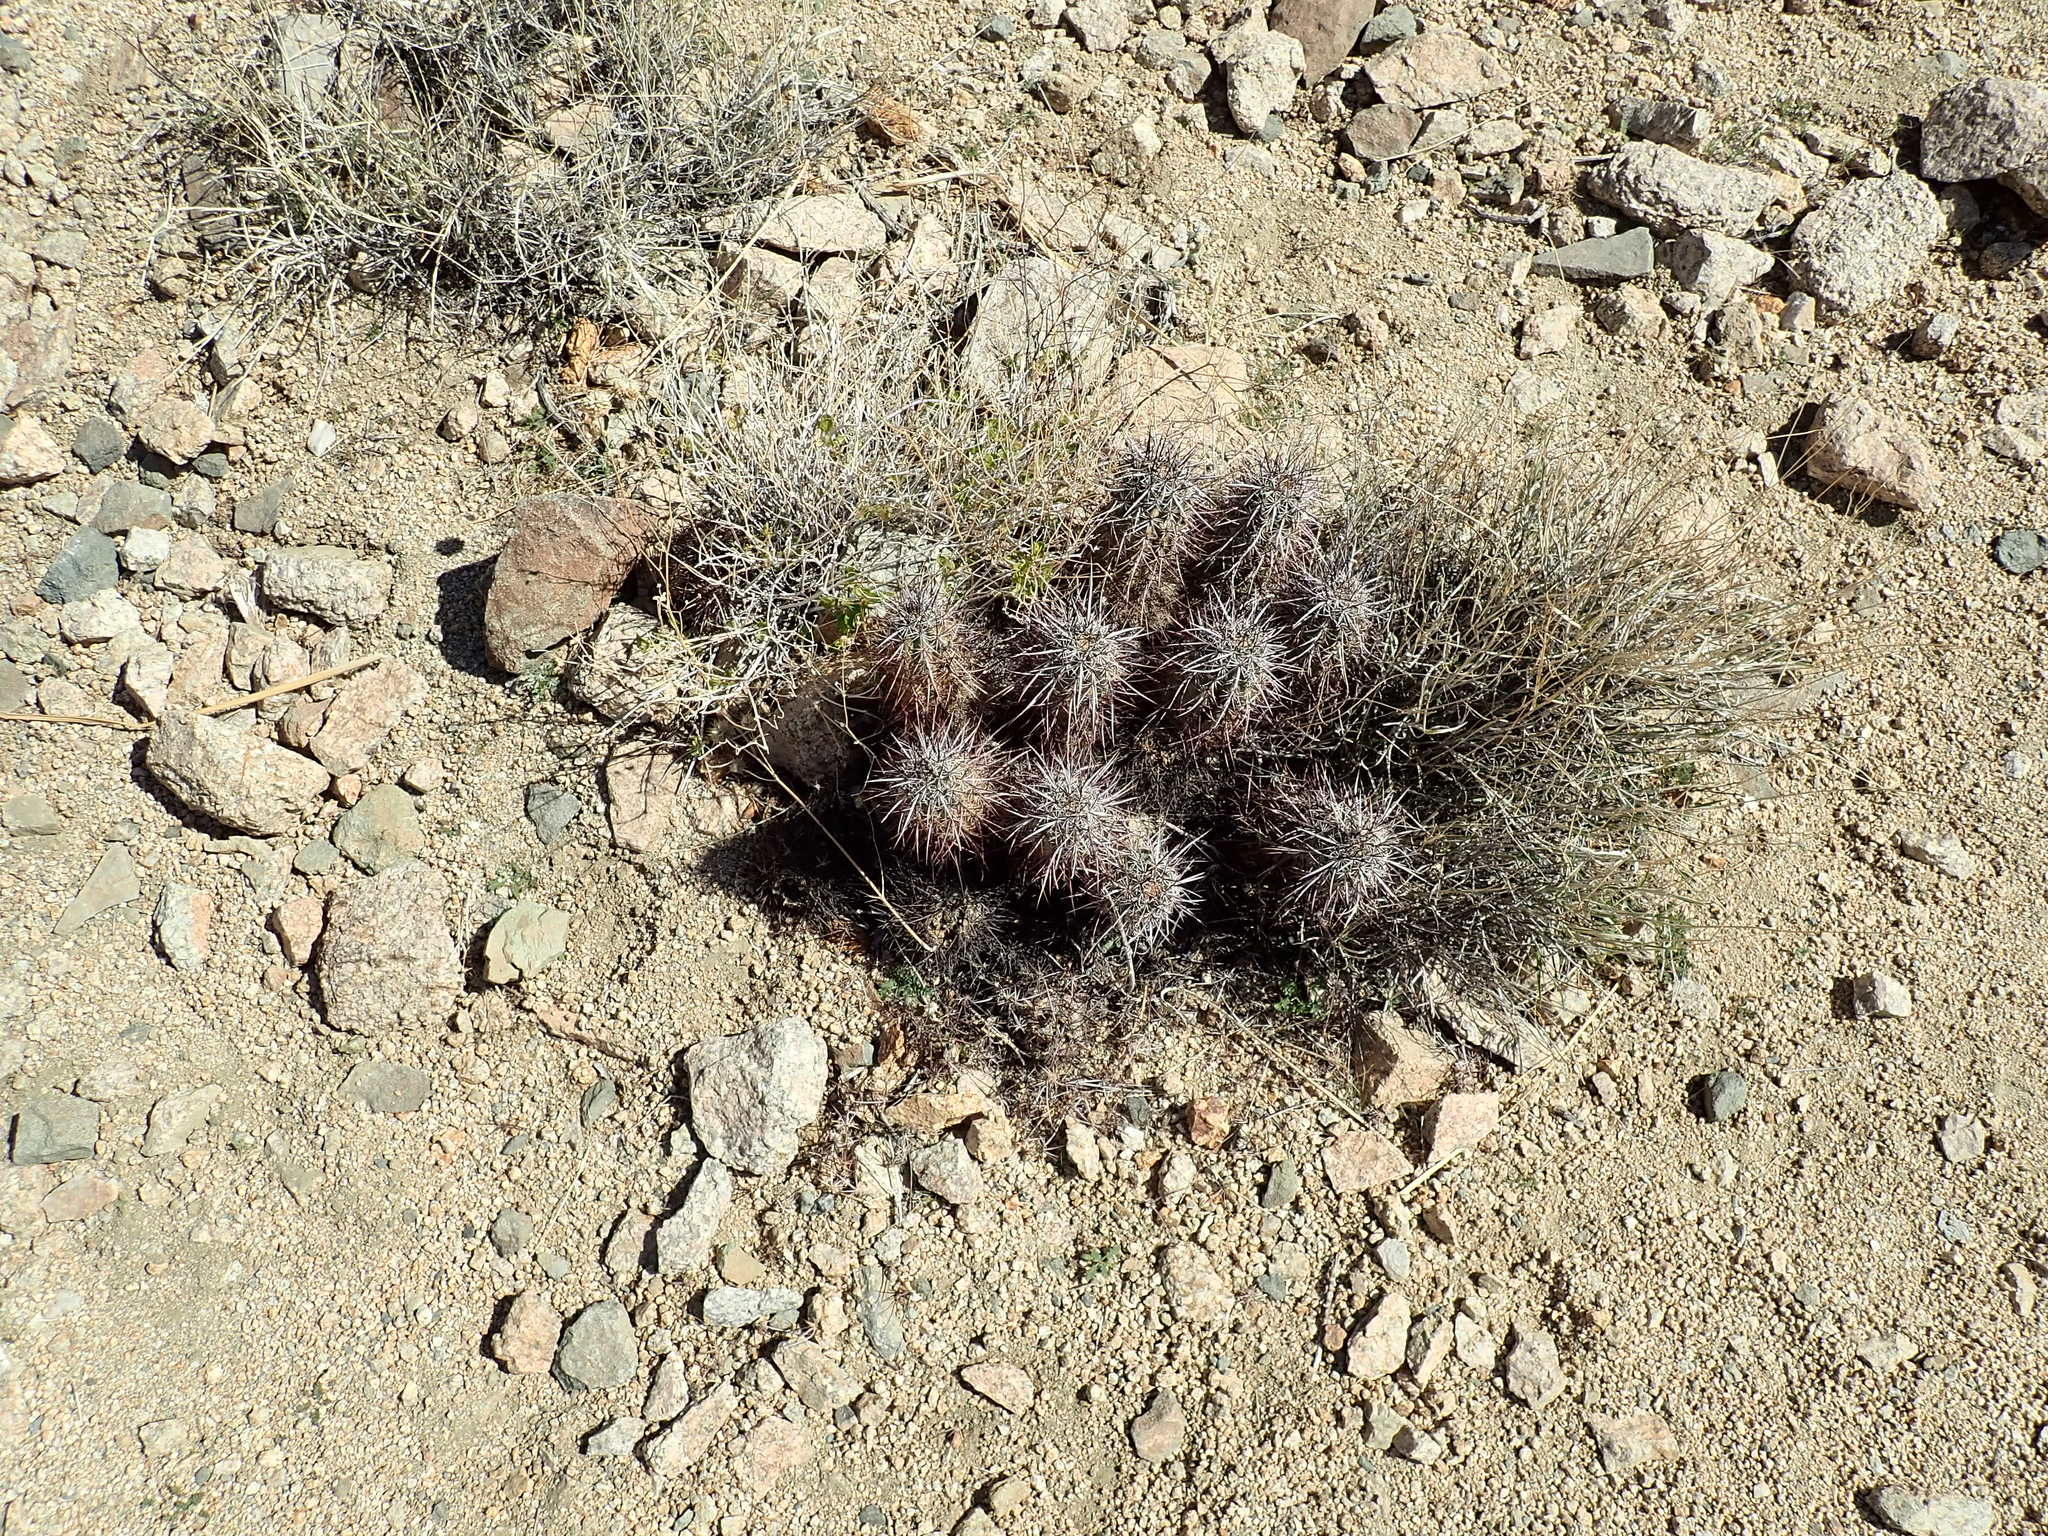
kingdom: Plantae
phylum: Tracheophyta
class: Magnoliopsida
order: Caryophyllales
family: Cactaceae
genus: Echinocereus
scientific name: Echinocereus engelmannii
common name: Engelmann's hedgehog cactus
